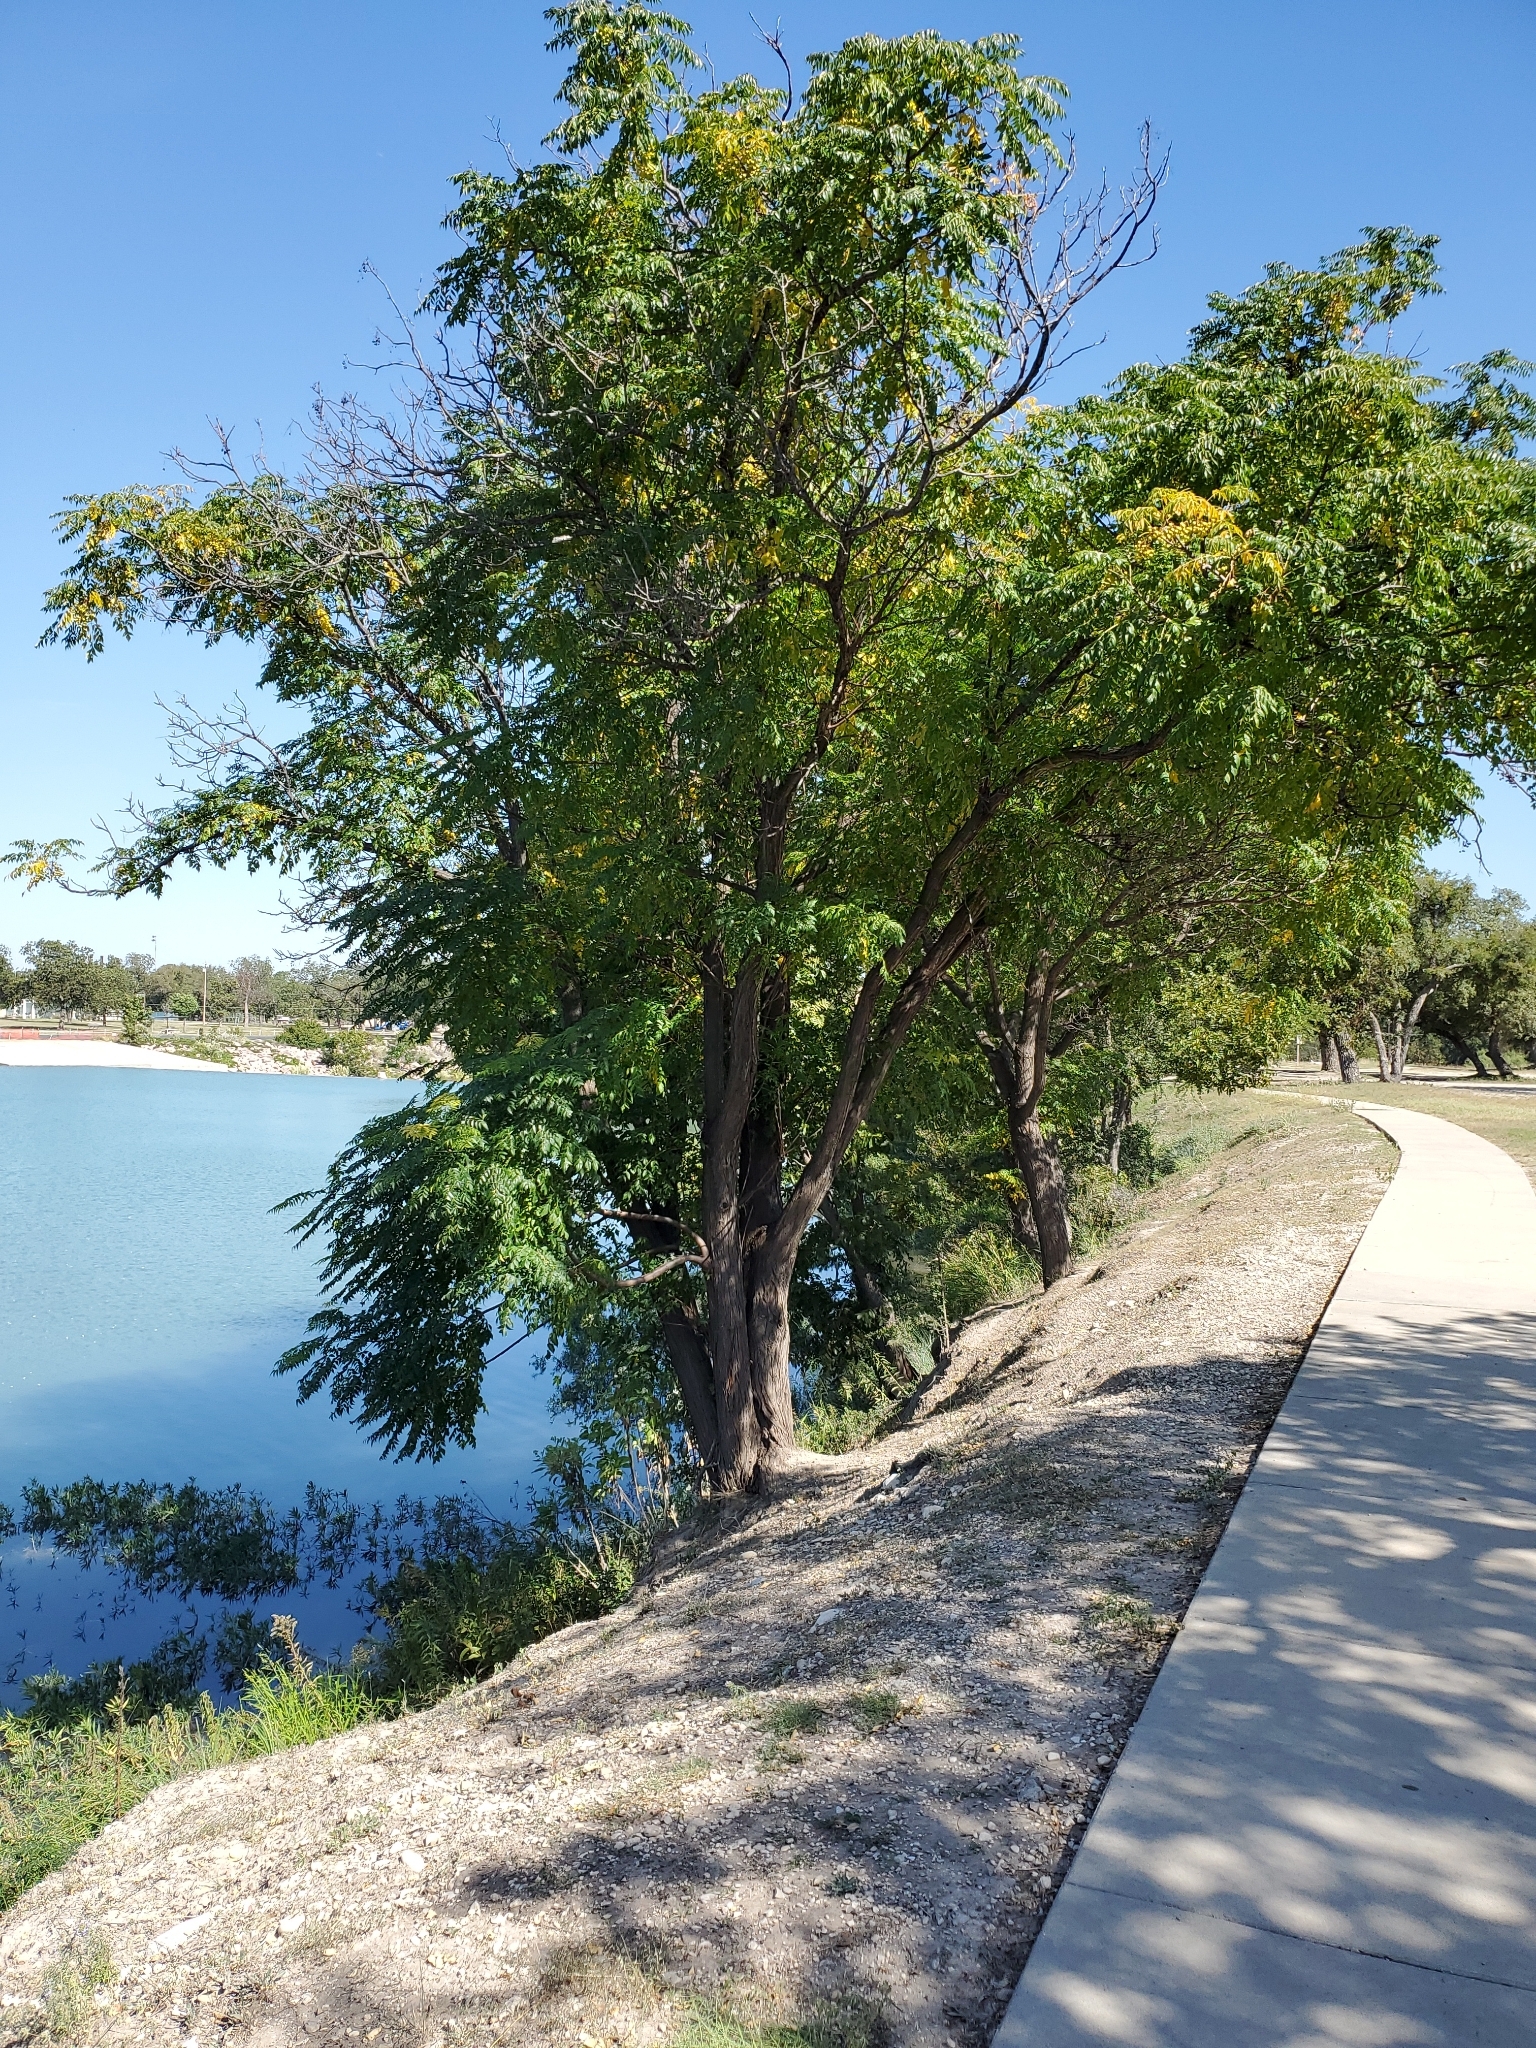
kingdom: Plantae
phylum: Tracheophyta
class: Magnoliopsida
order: Sapindales
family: Meliaceae
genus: Melia
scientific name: Melia azedarach
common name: Chinaberrytree
